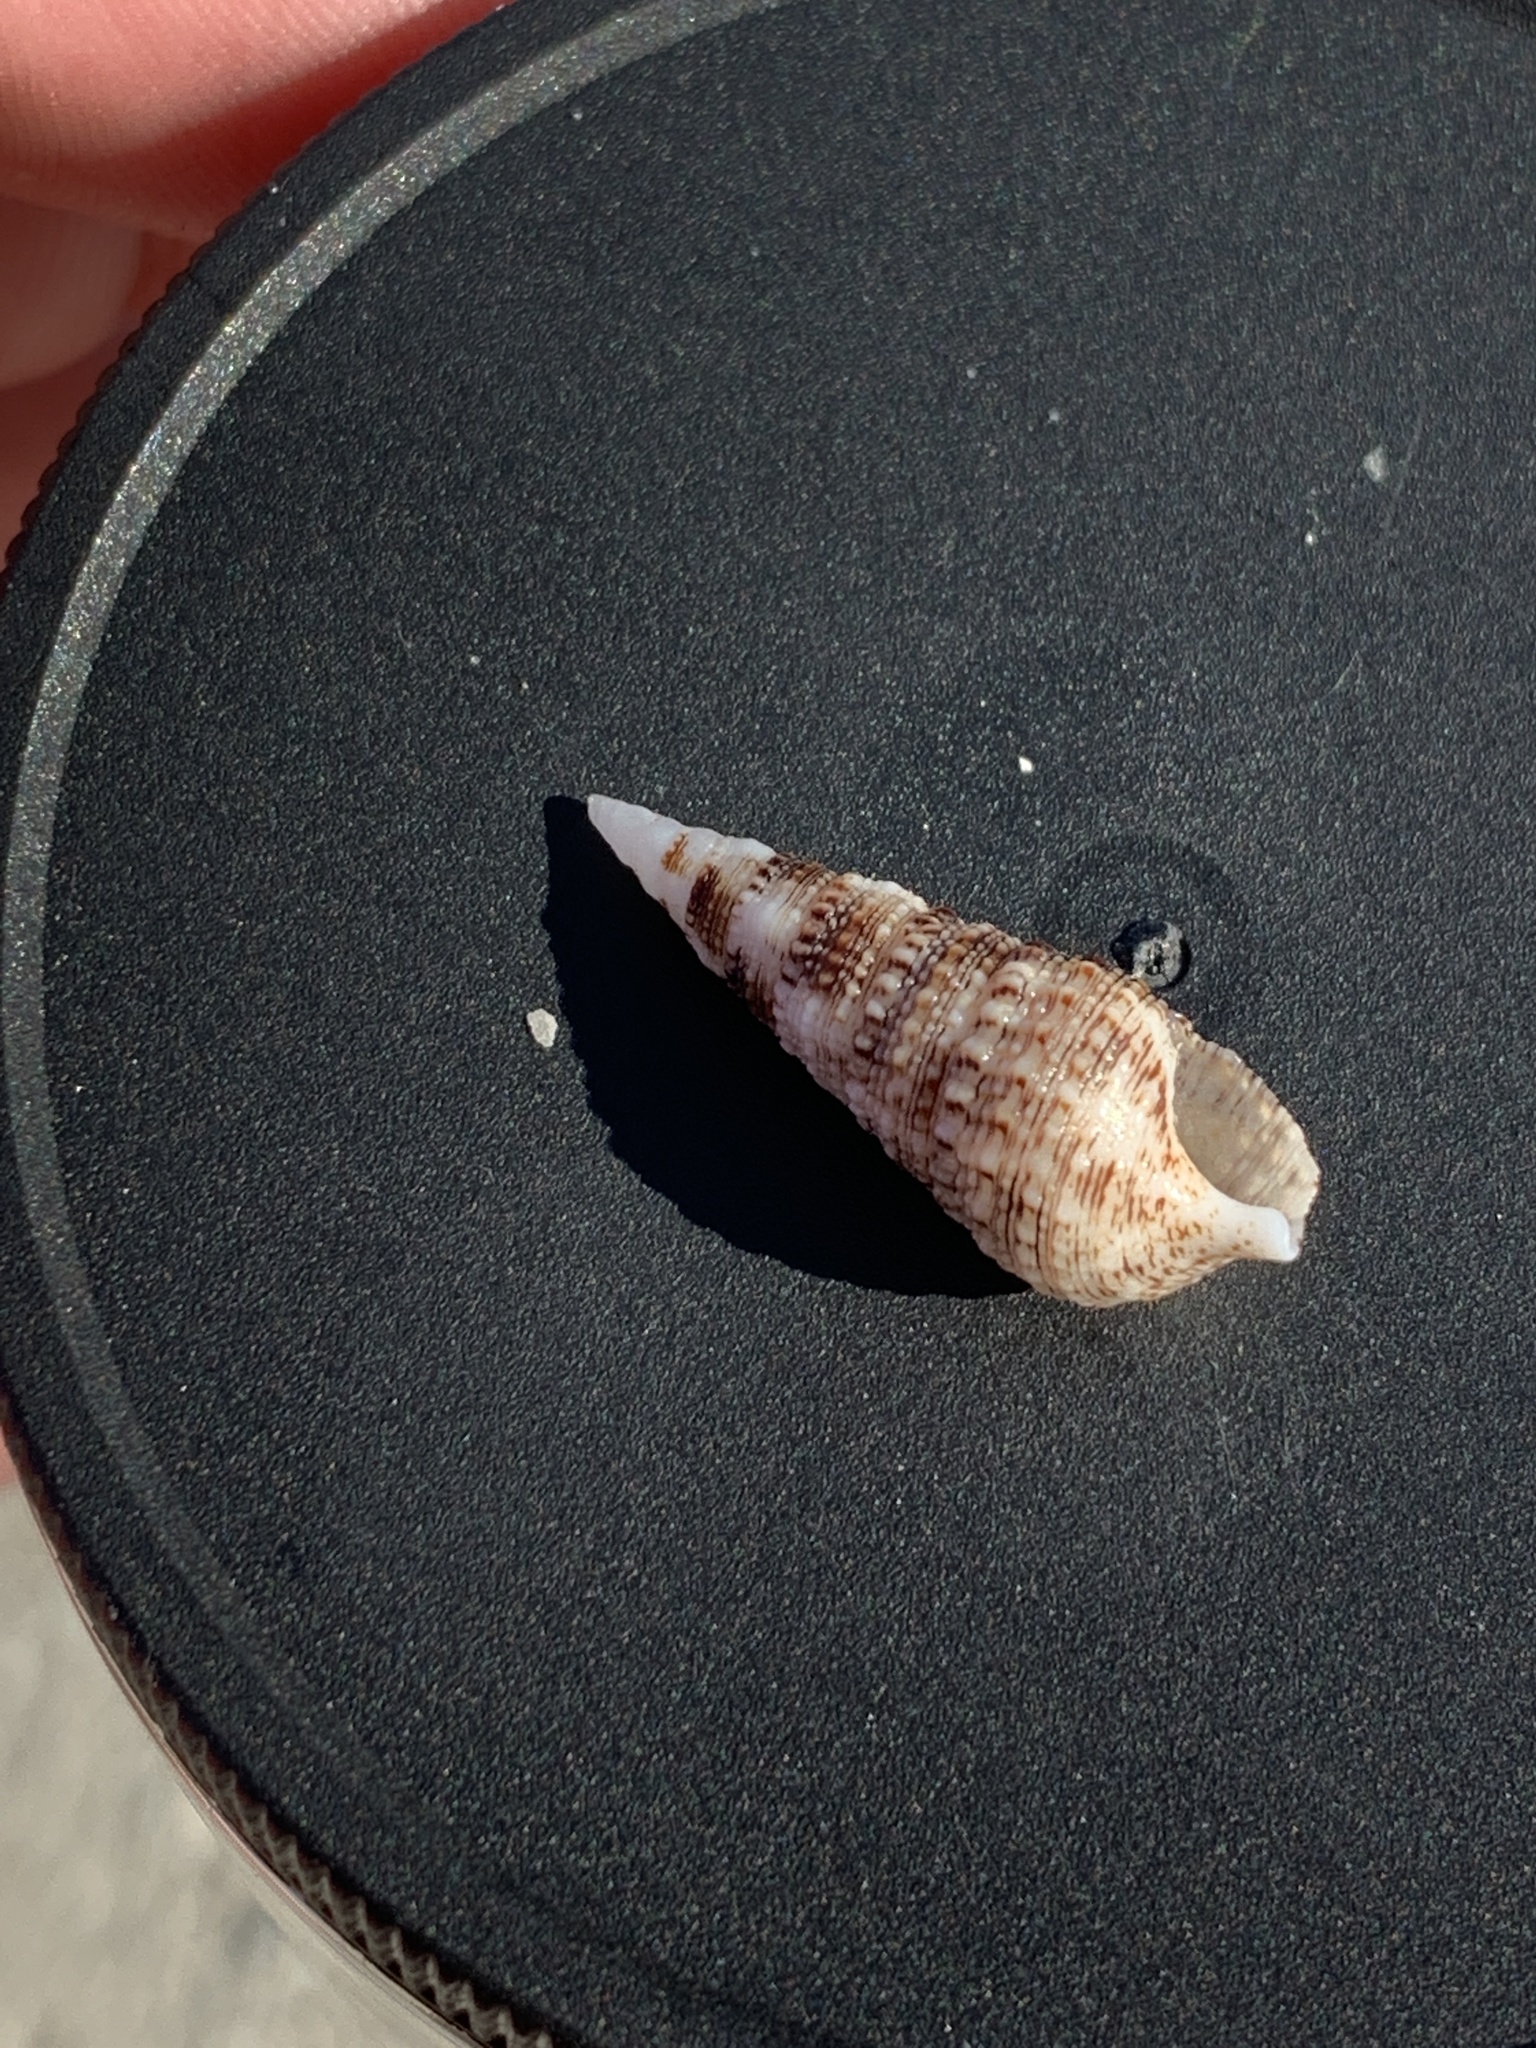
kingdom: Animalia
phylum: Mollusca
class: Gastropoda
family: Cerithiidae
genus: Cerithium
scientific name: Cerithium atratum
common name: Dark cerith
